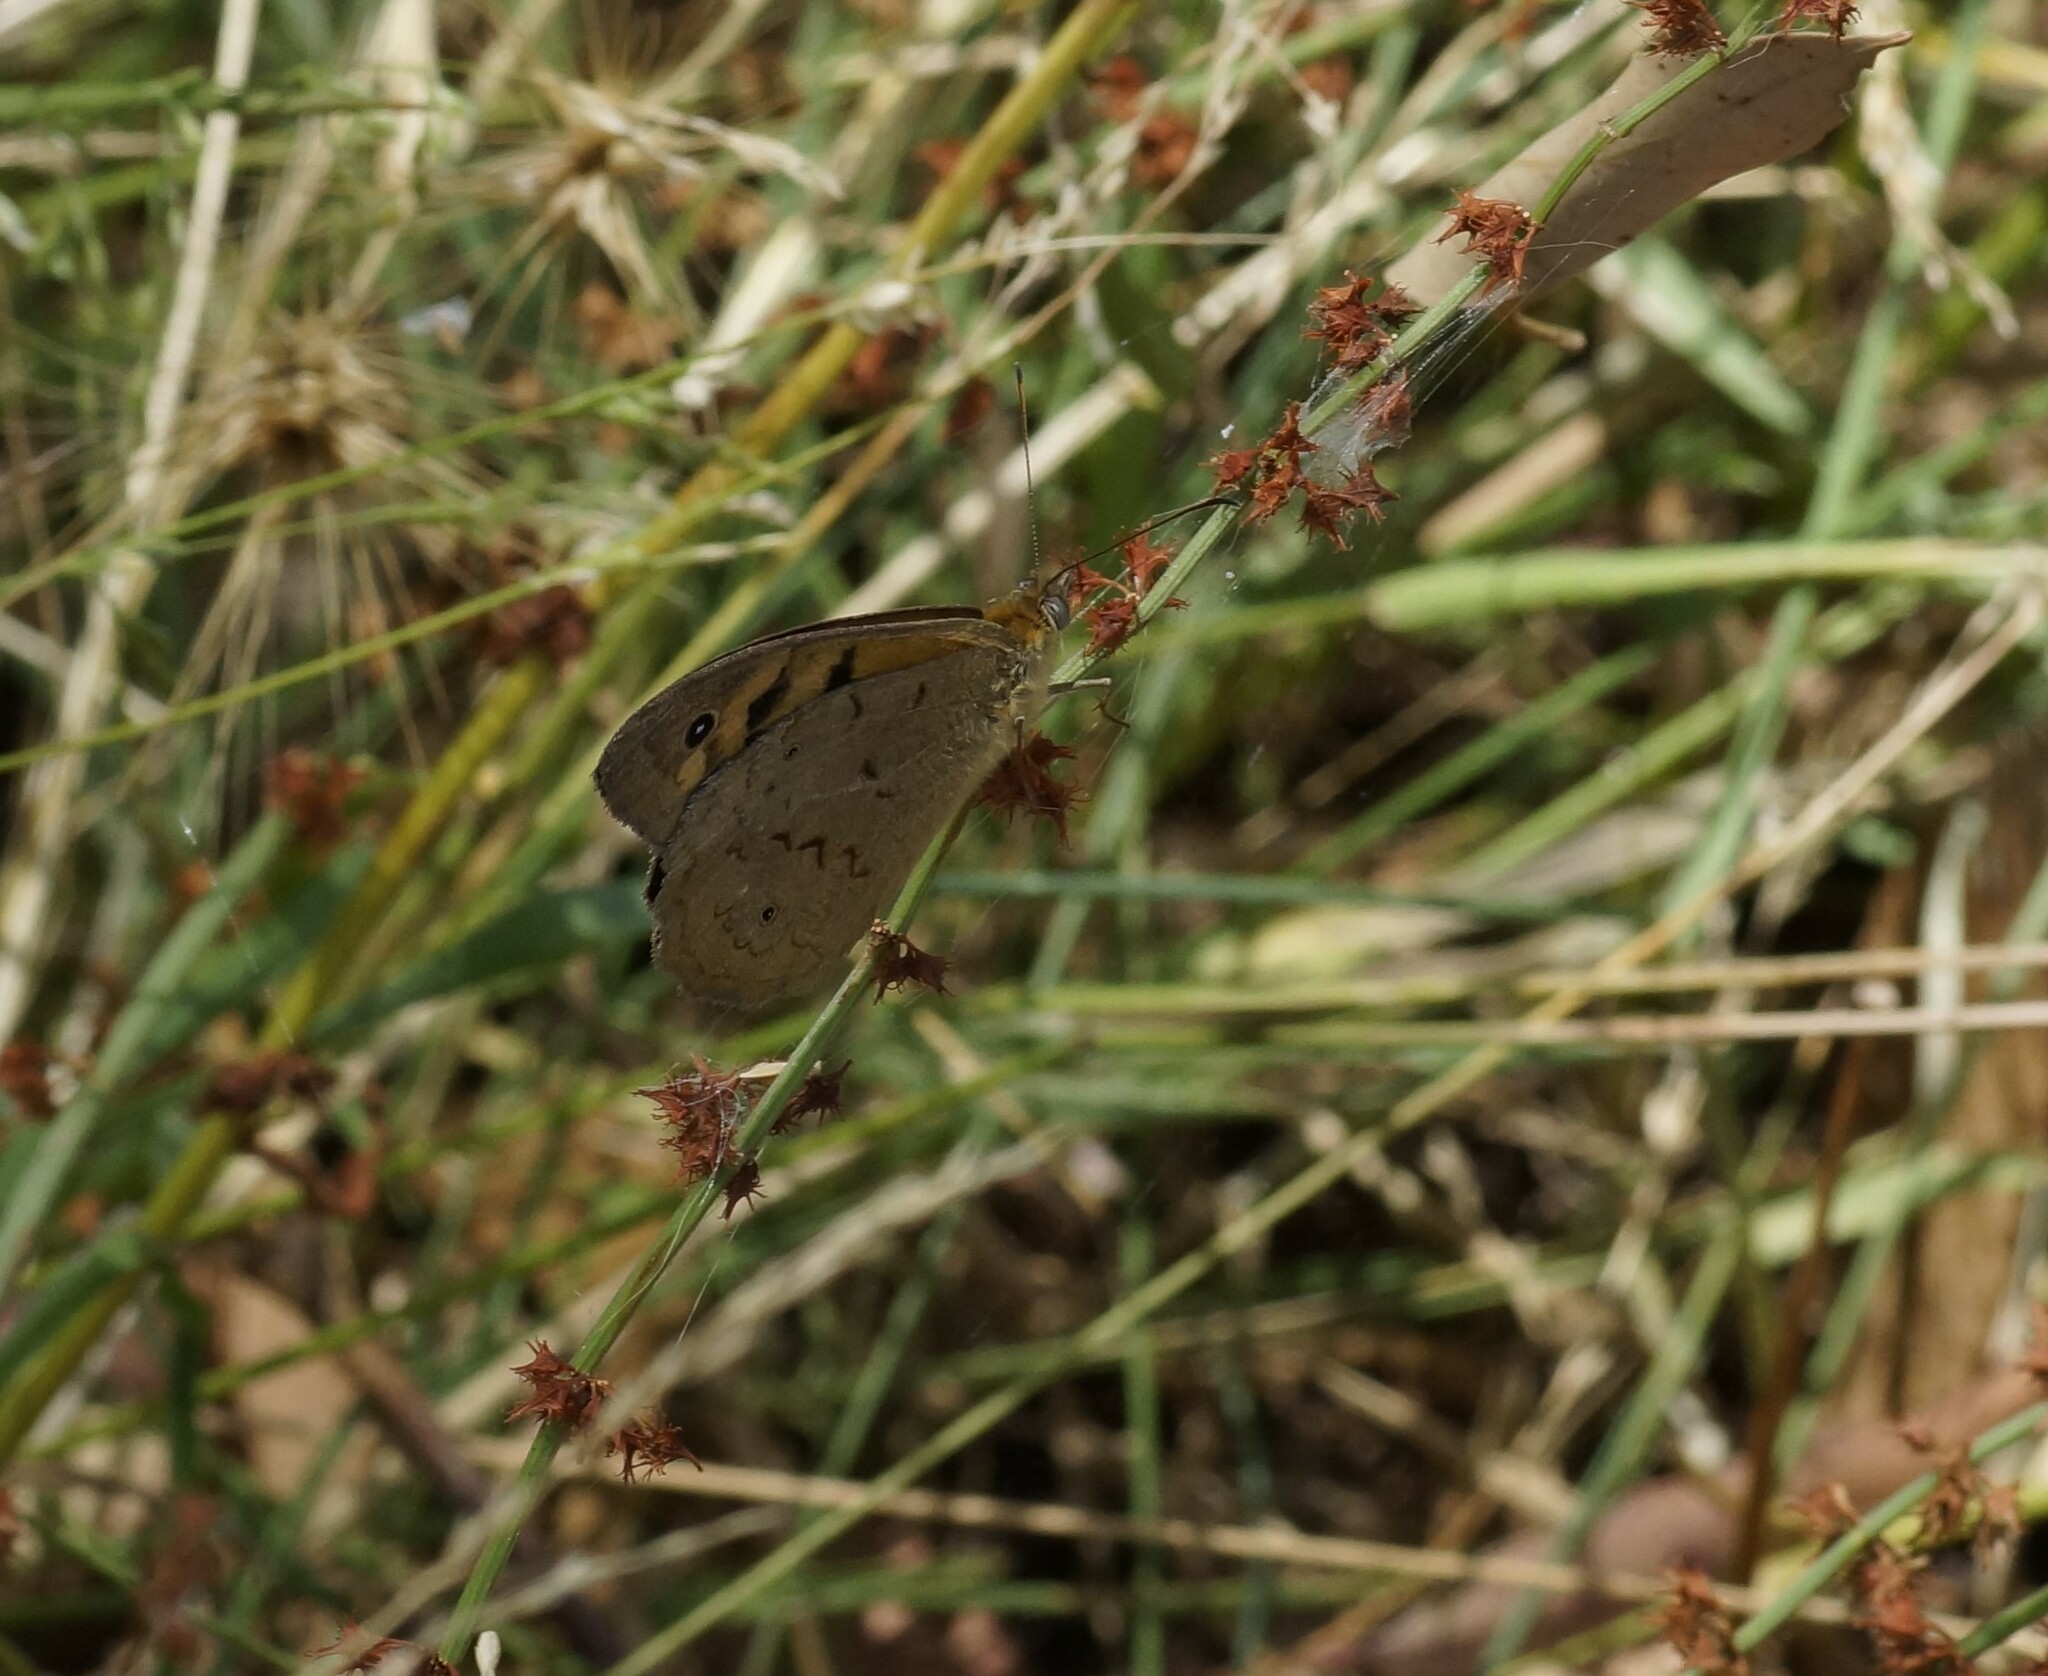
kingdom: Animalia
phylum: Arthropoda
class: Insecta
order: Lepidoptera
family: Nymphalidae
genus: Heteronympha
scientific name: Heteronympha merope
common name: Common brown
